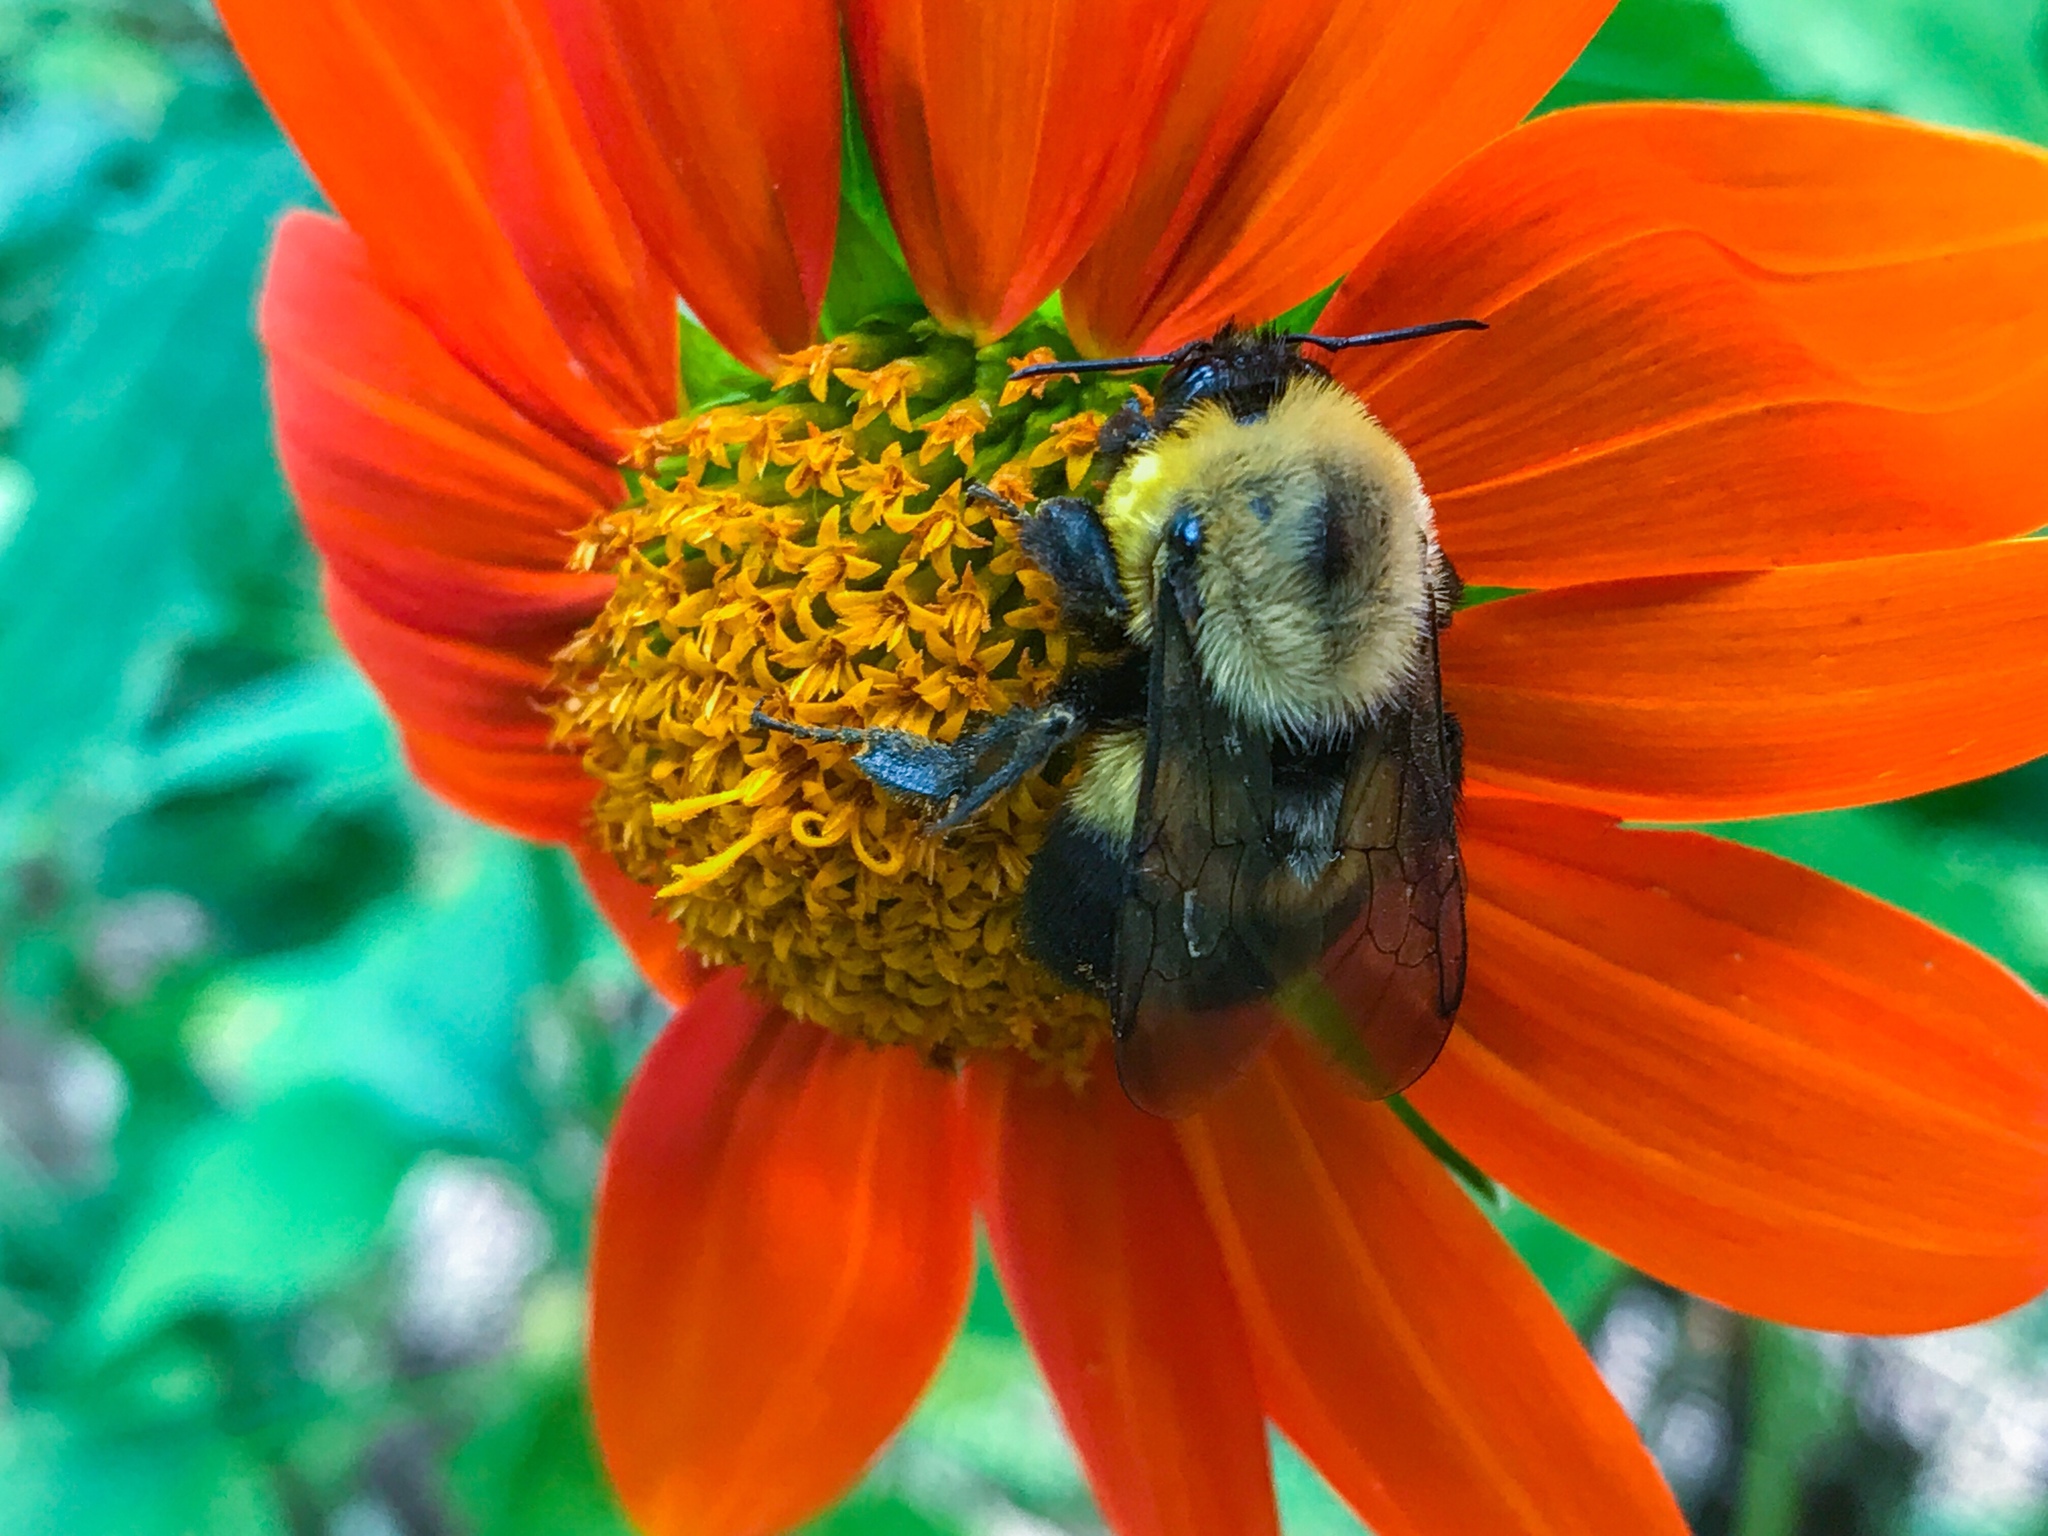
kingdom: Animalia
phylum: Arthropoda
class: Insecta
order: Hymenoptera
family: Apidae
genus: Bombus
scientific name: Bombus griseocollis
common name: Brown-belted bumble bee
